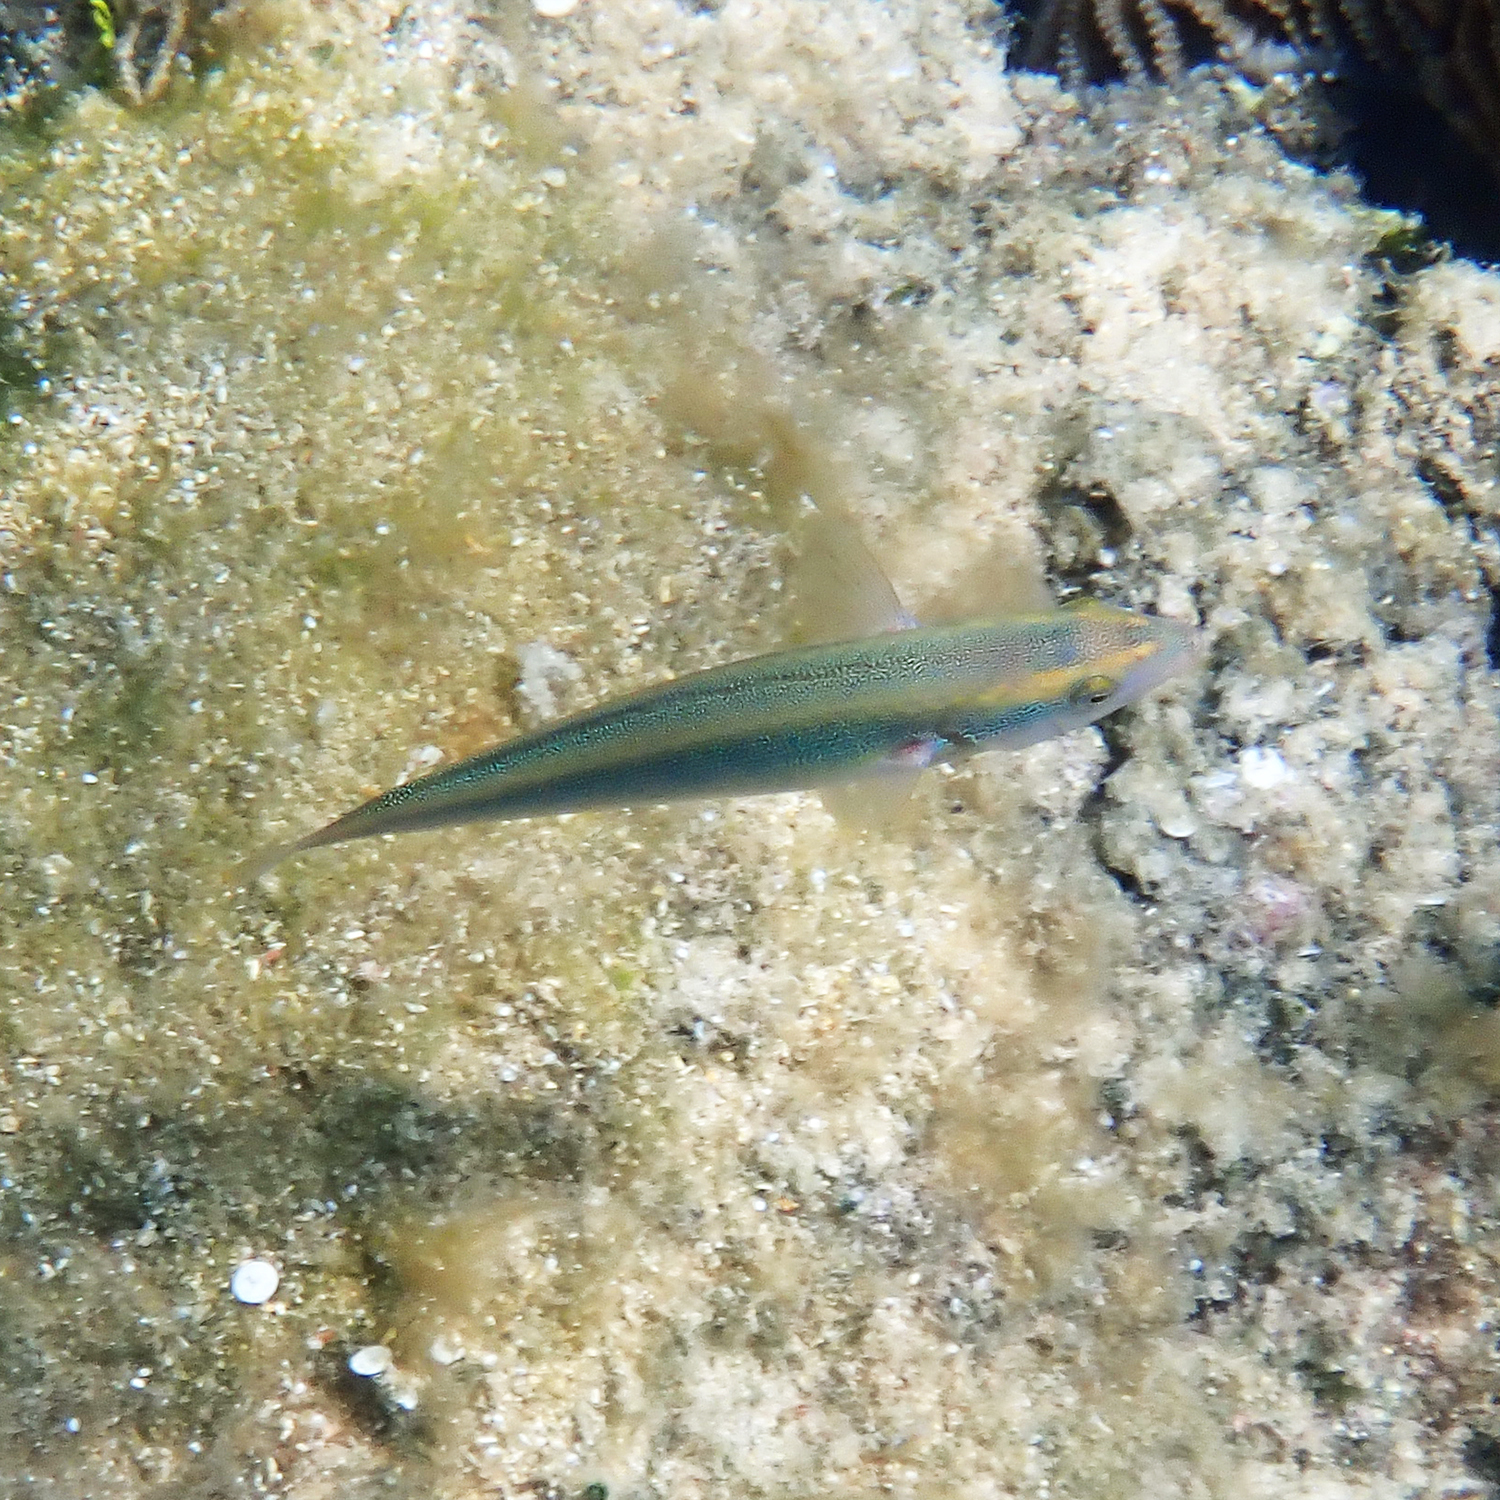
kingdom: Animalia
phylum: Chordata
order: Perciformes
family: Labridae
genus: Stethojulis
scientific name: Stethojulis notialis
